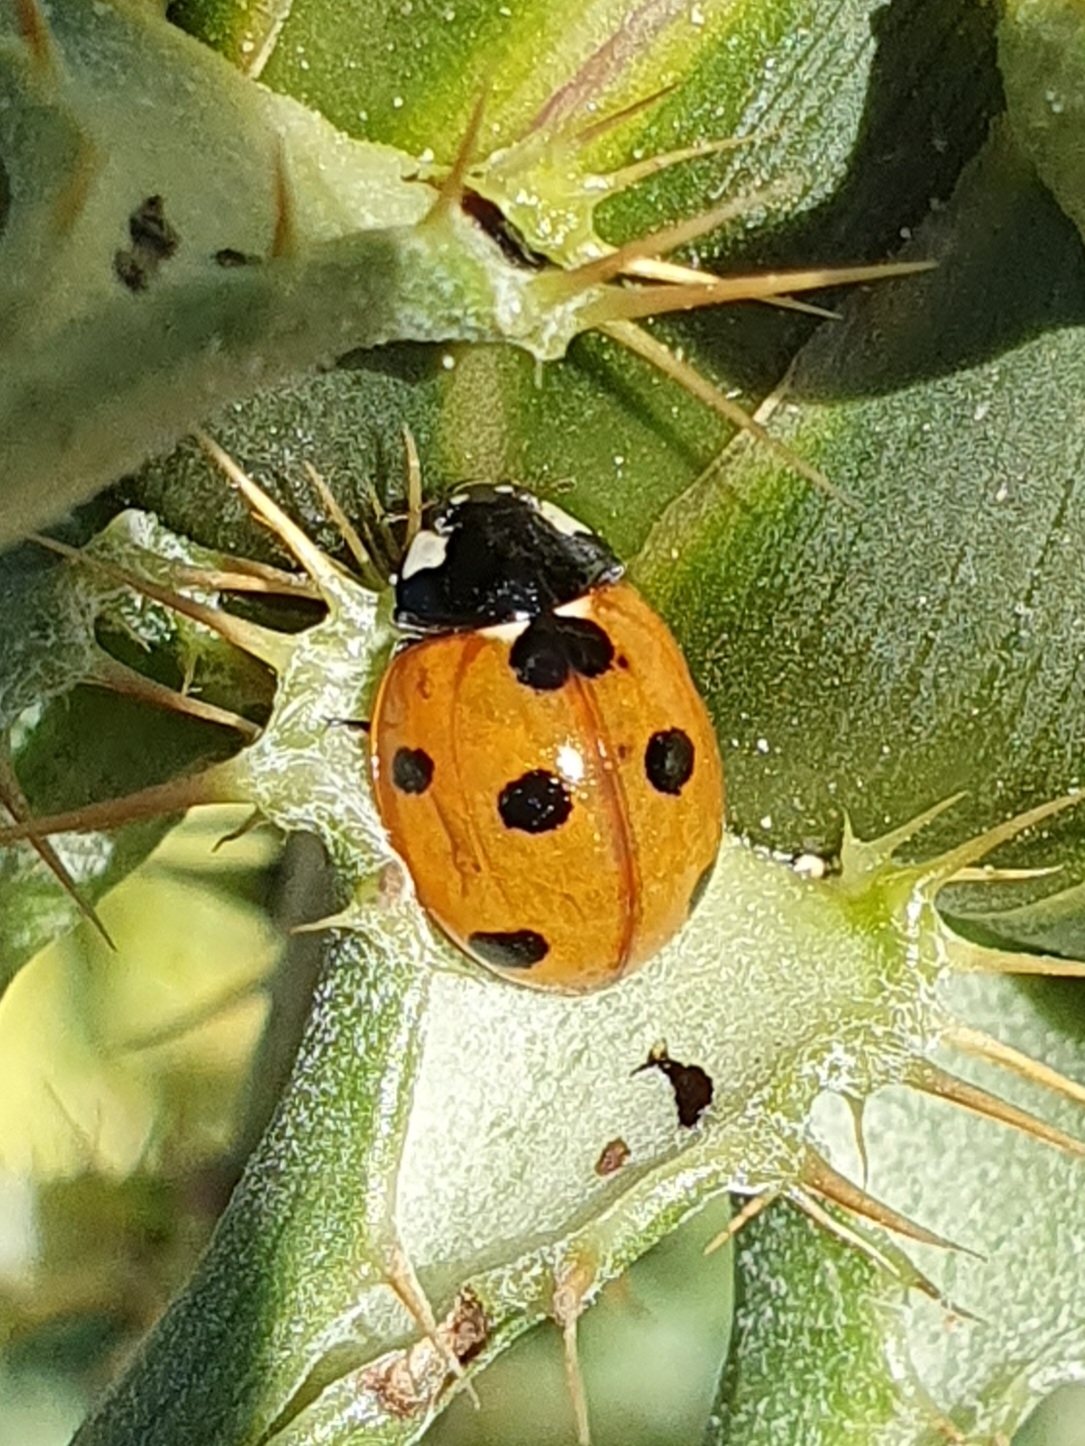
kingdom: Animalia
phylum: Arthropoda
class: Insecta
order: Coleoptera
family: Coccinellidae
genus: Coccinella
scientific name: Coccinella algerica
